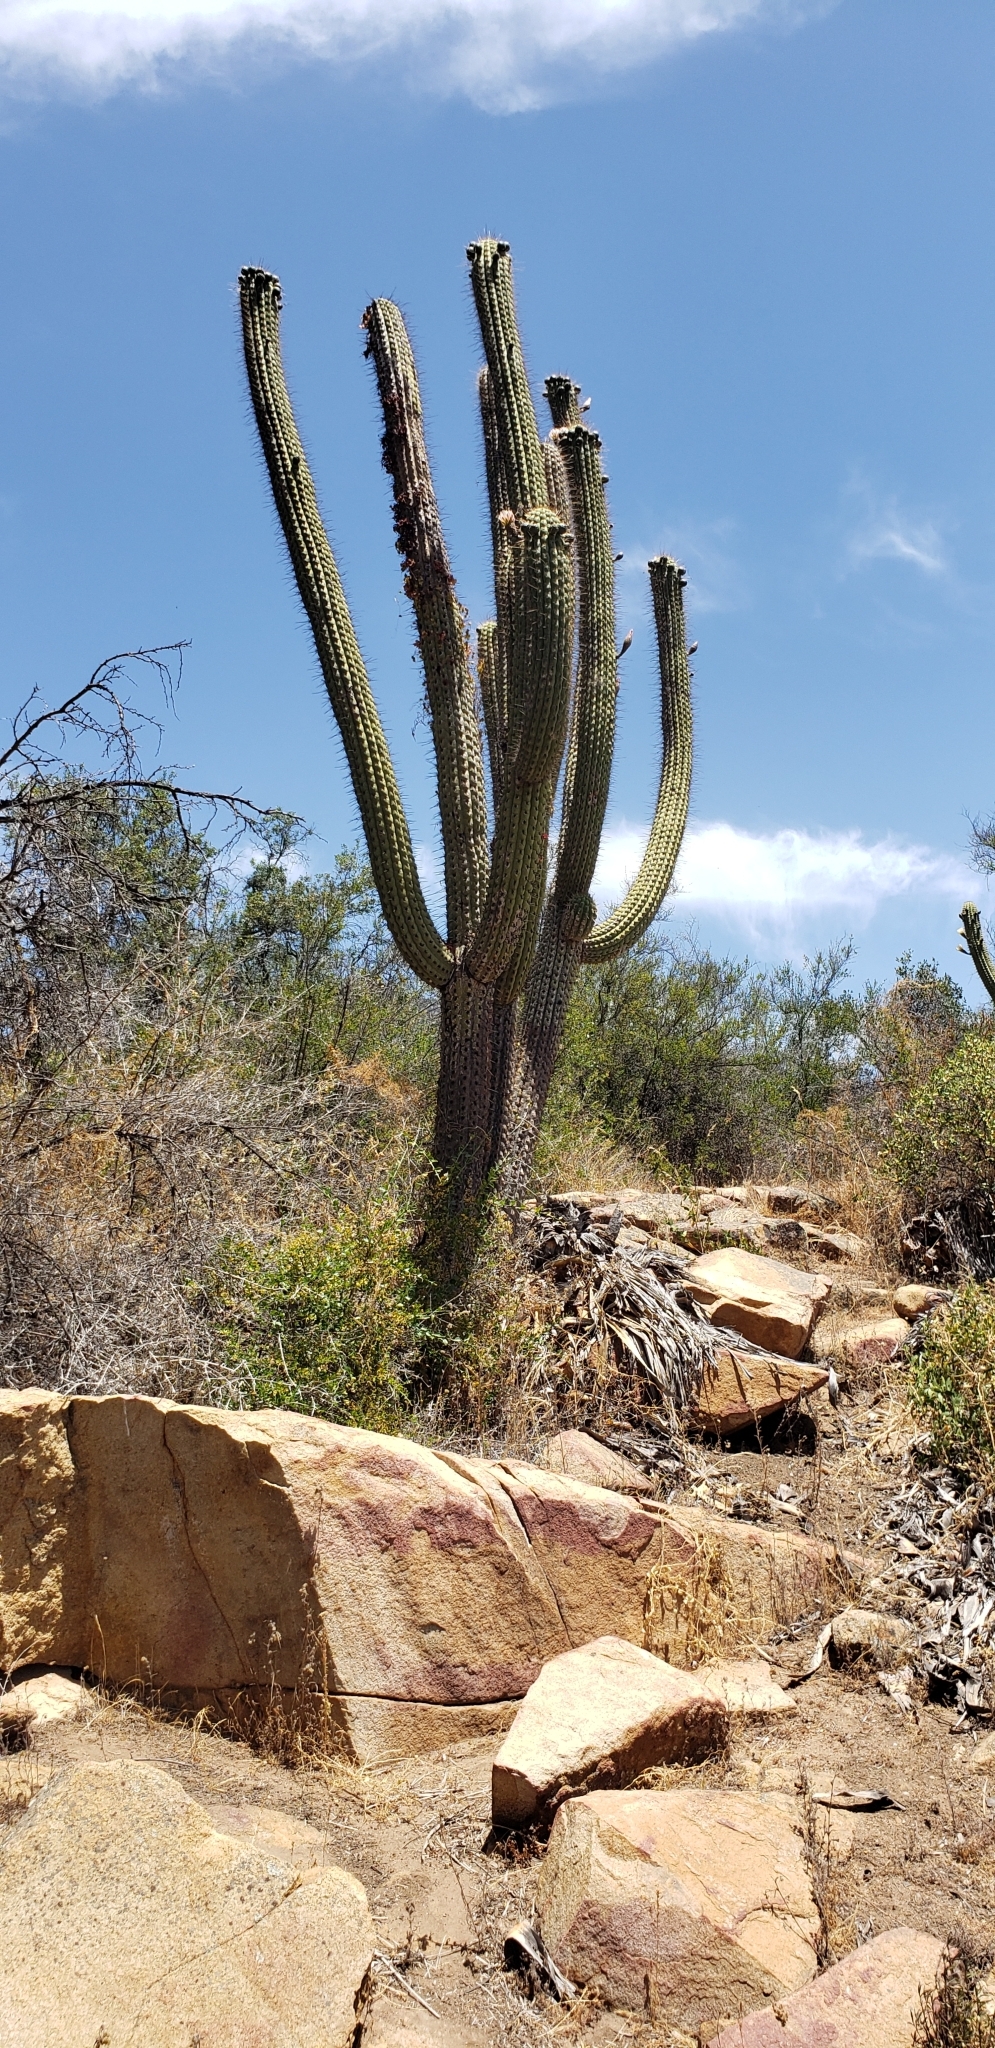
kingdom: Plantae
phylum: Tracheophyta
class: Magnoliopsida
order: Caryophyllales
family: Cactaceae
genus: Leucostele
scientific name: Leucostele chiloensis
